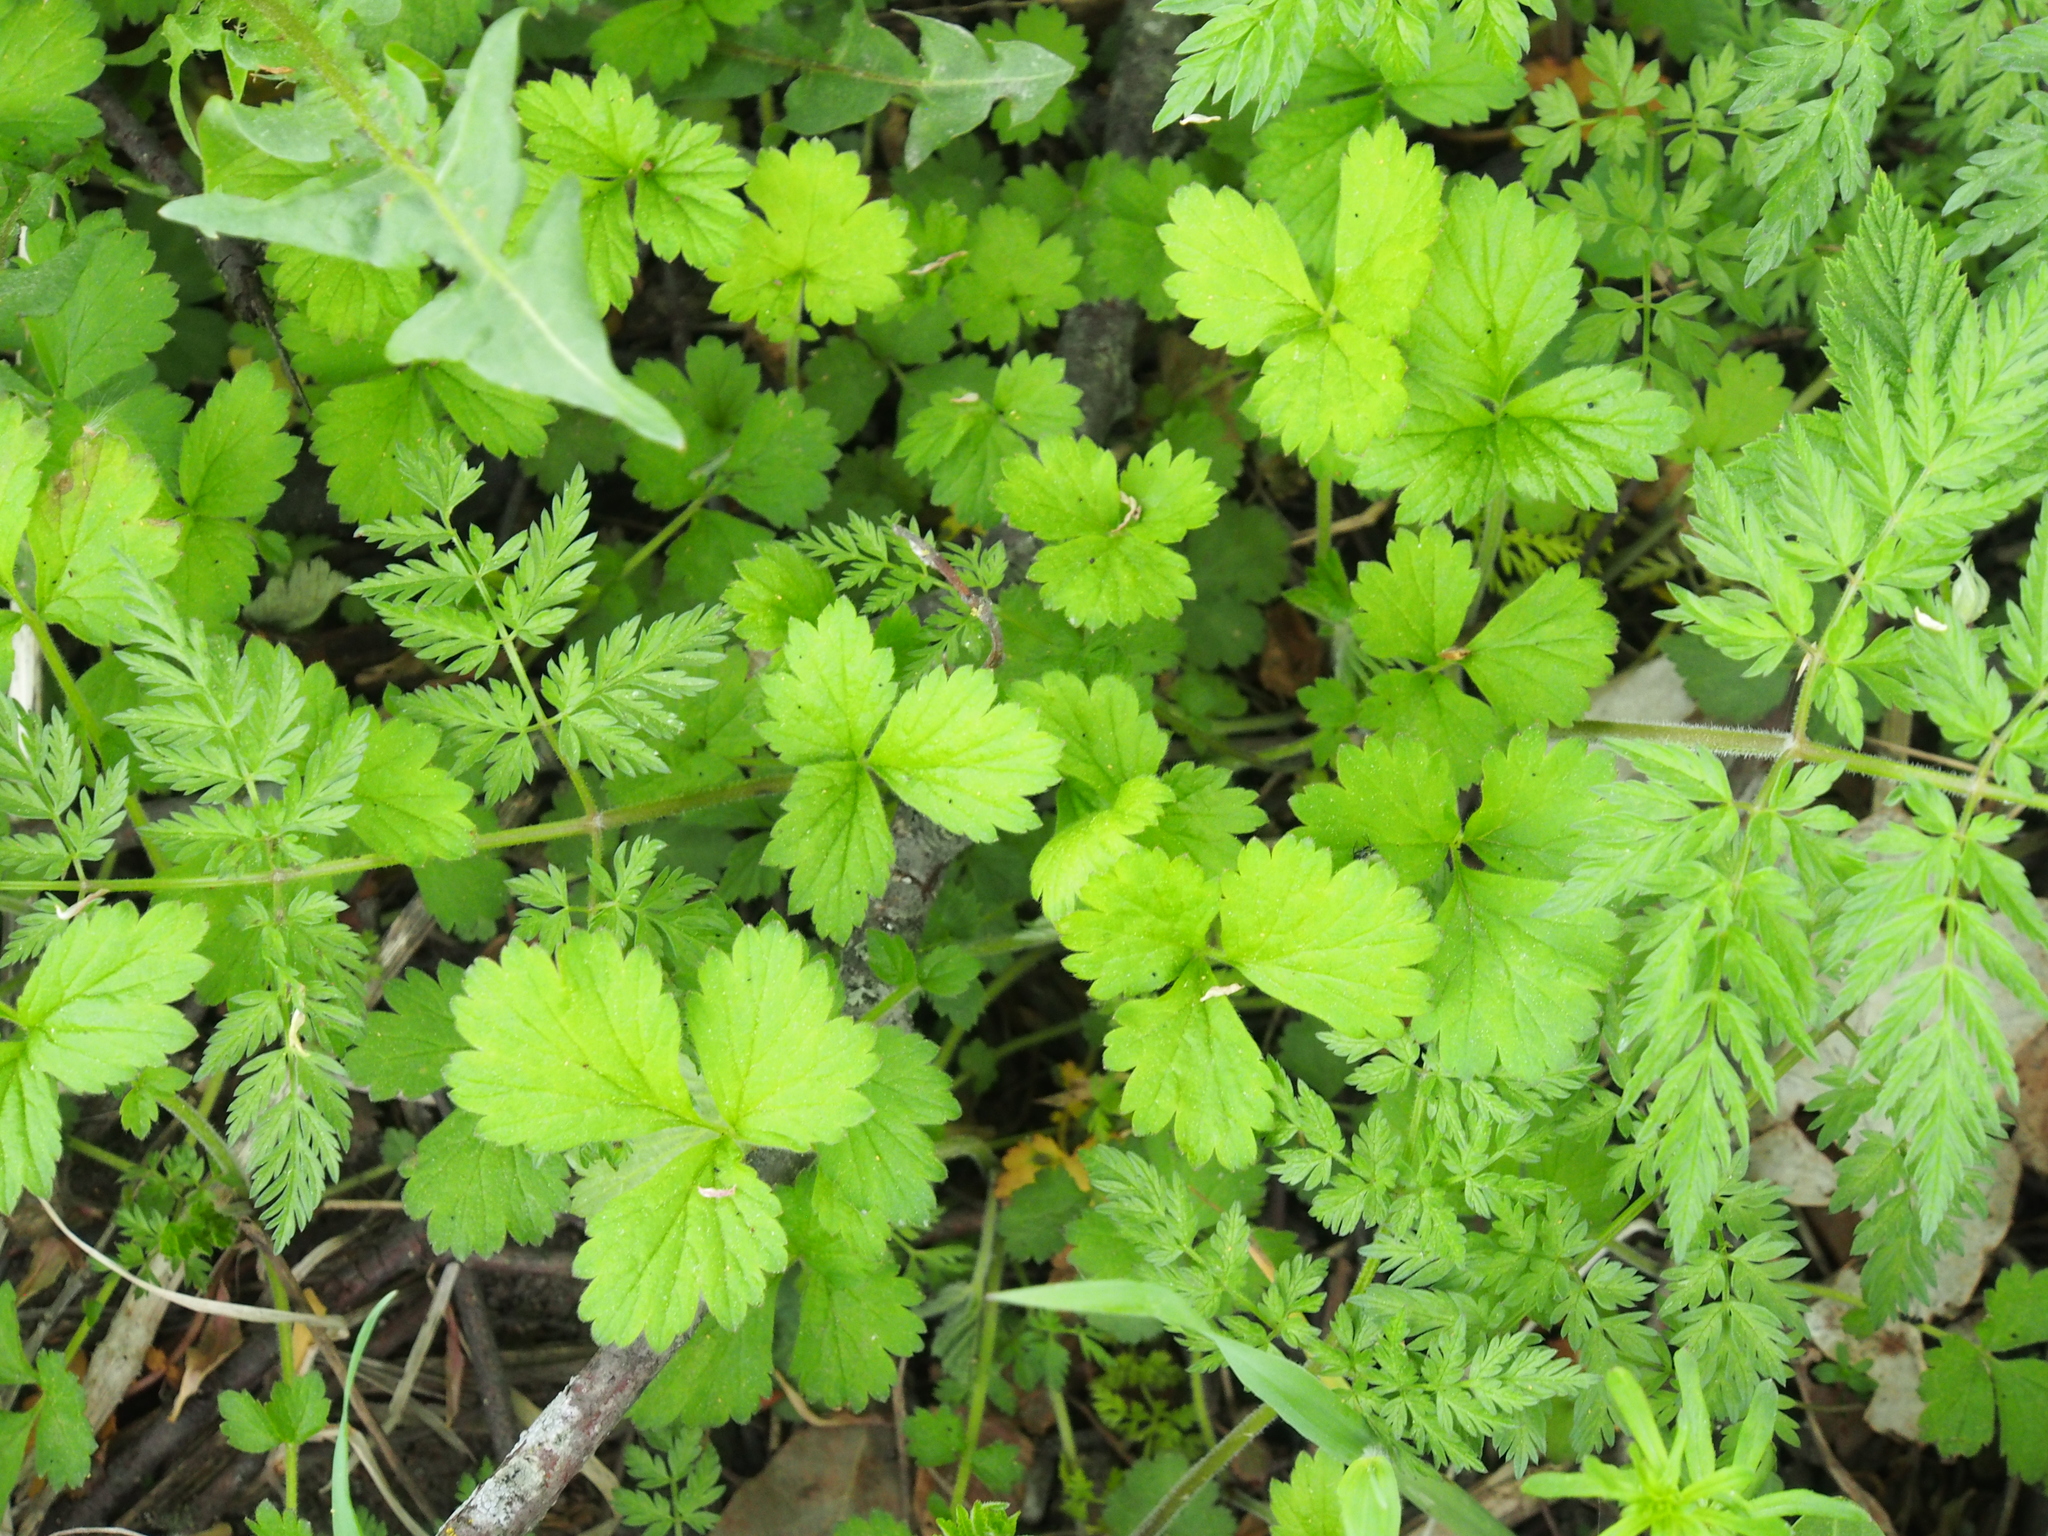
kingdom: Plantae
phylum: Tracheophyta
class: Magnoliopsida
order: Rosales
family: Rosaceae
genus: Geum
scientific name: Geum urbanum
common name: Wood avens
